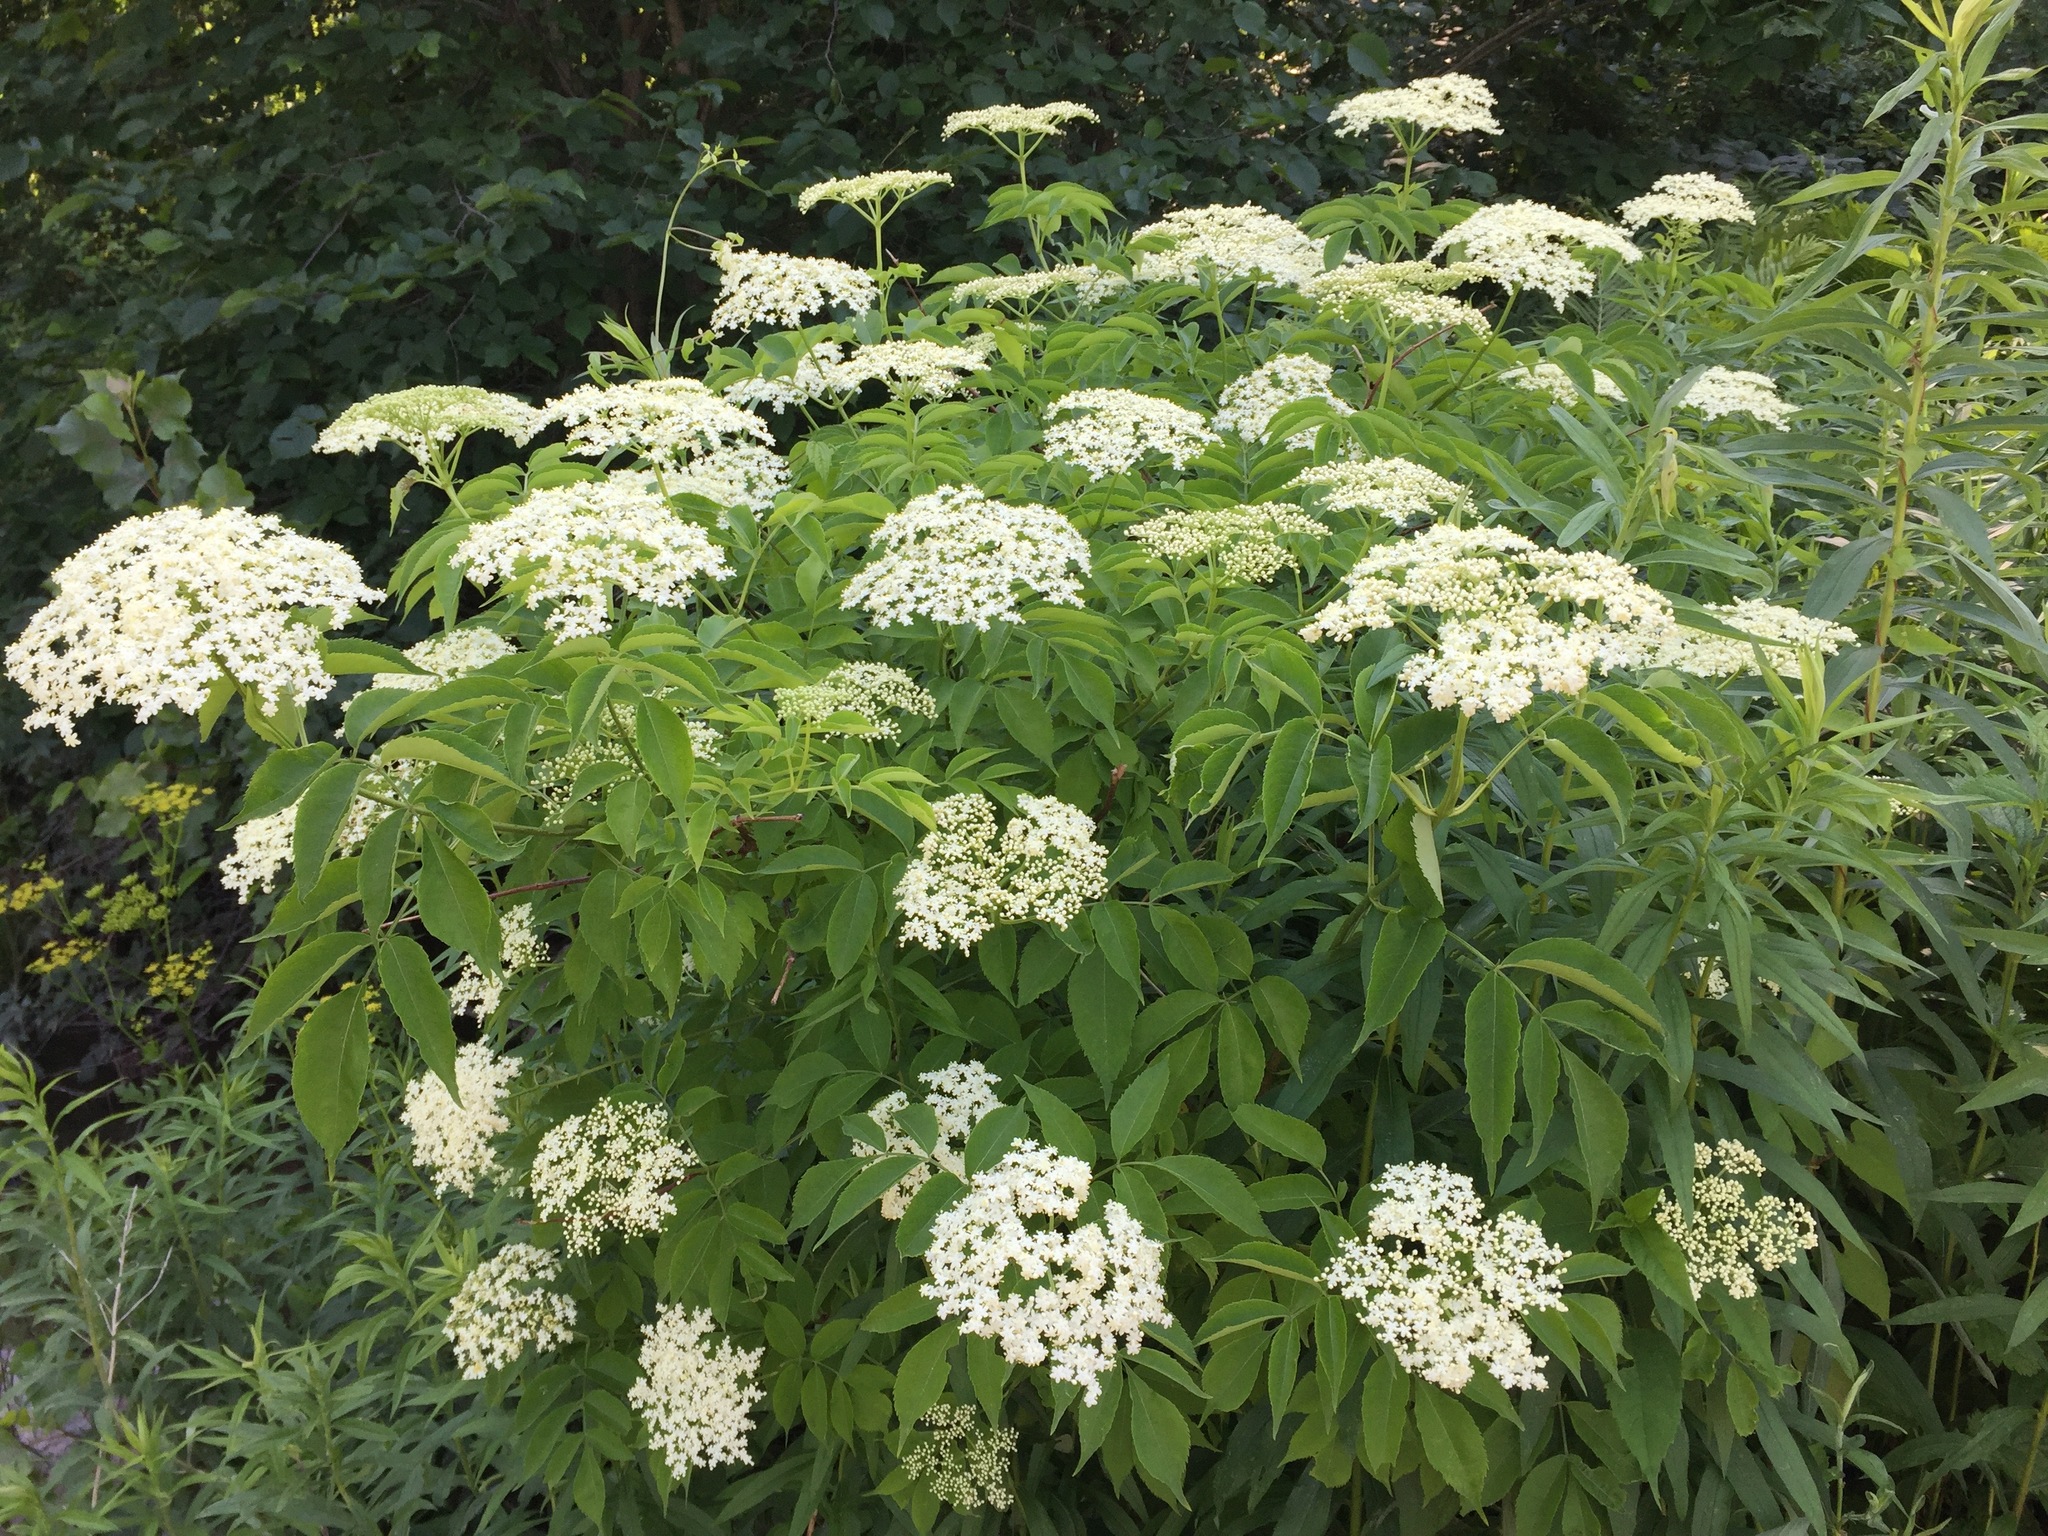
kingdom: Plantae
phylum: Tracheophyta
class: Magnoliopsida
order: Dipsacales
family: Viburnaceae
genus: Sambucus
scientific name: Sambucus canadensis
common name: American elder
